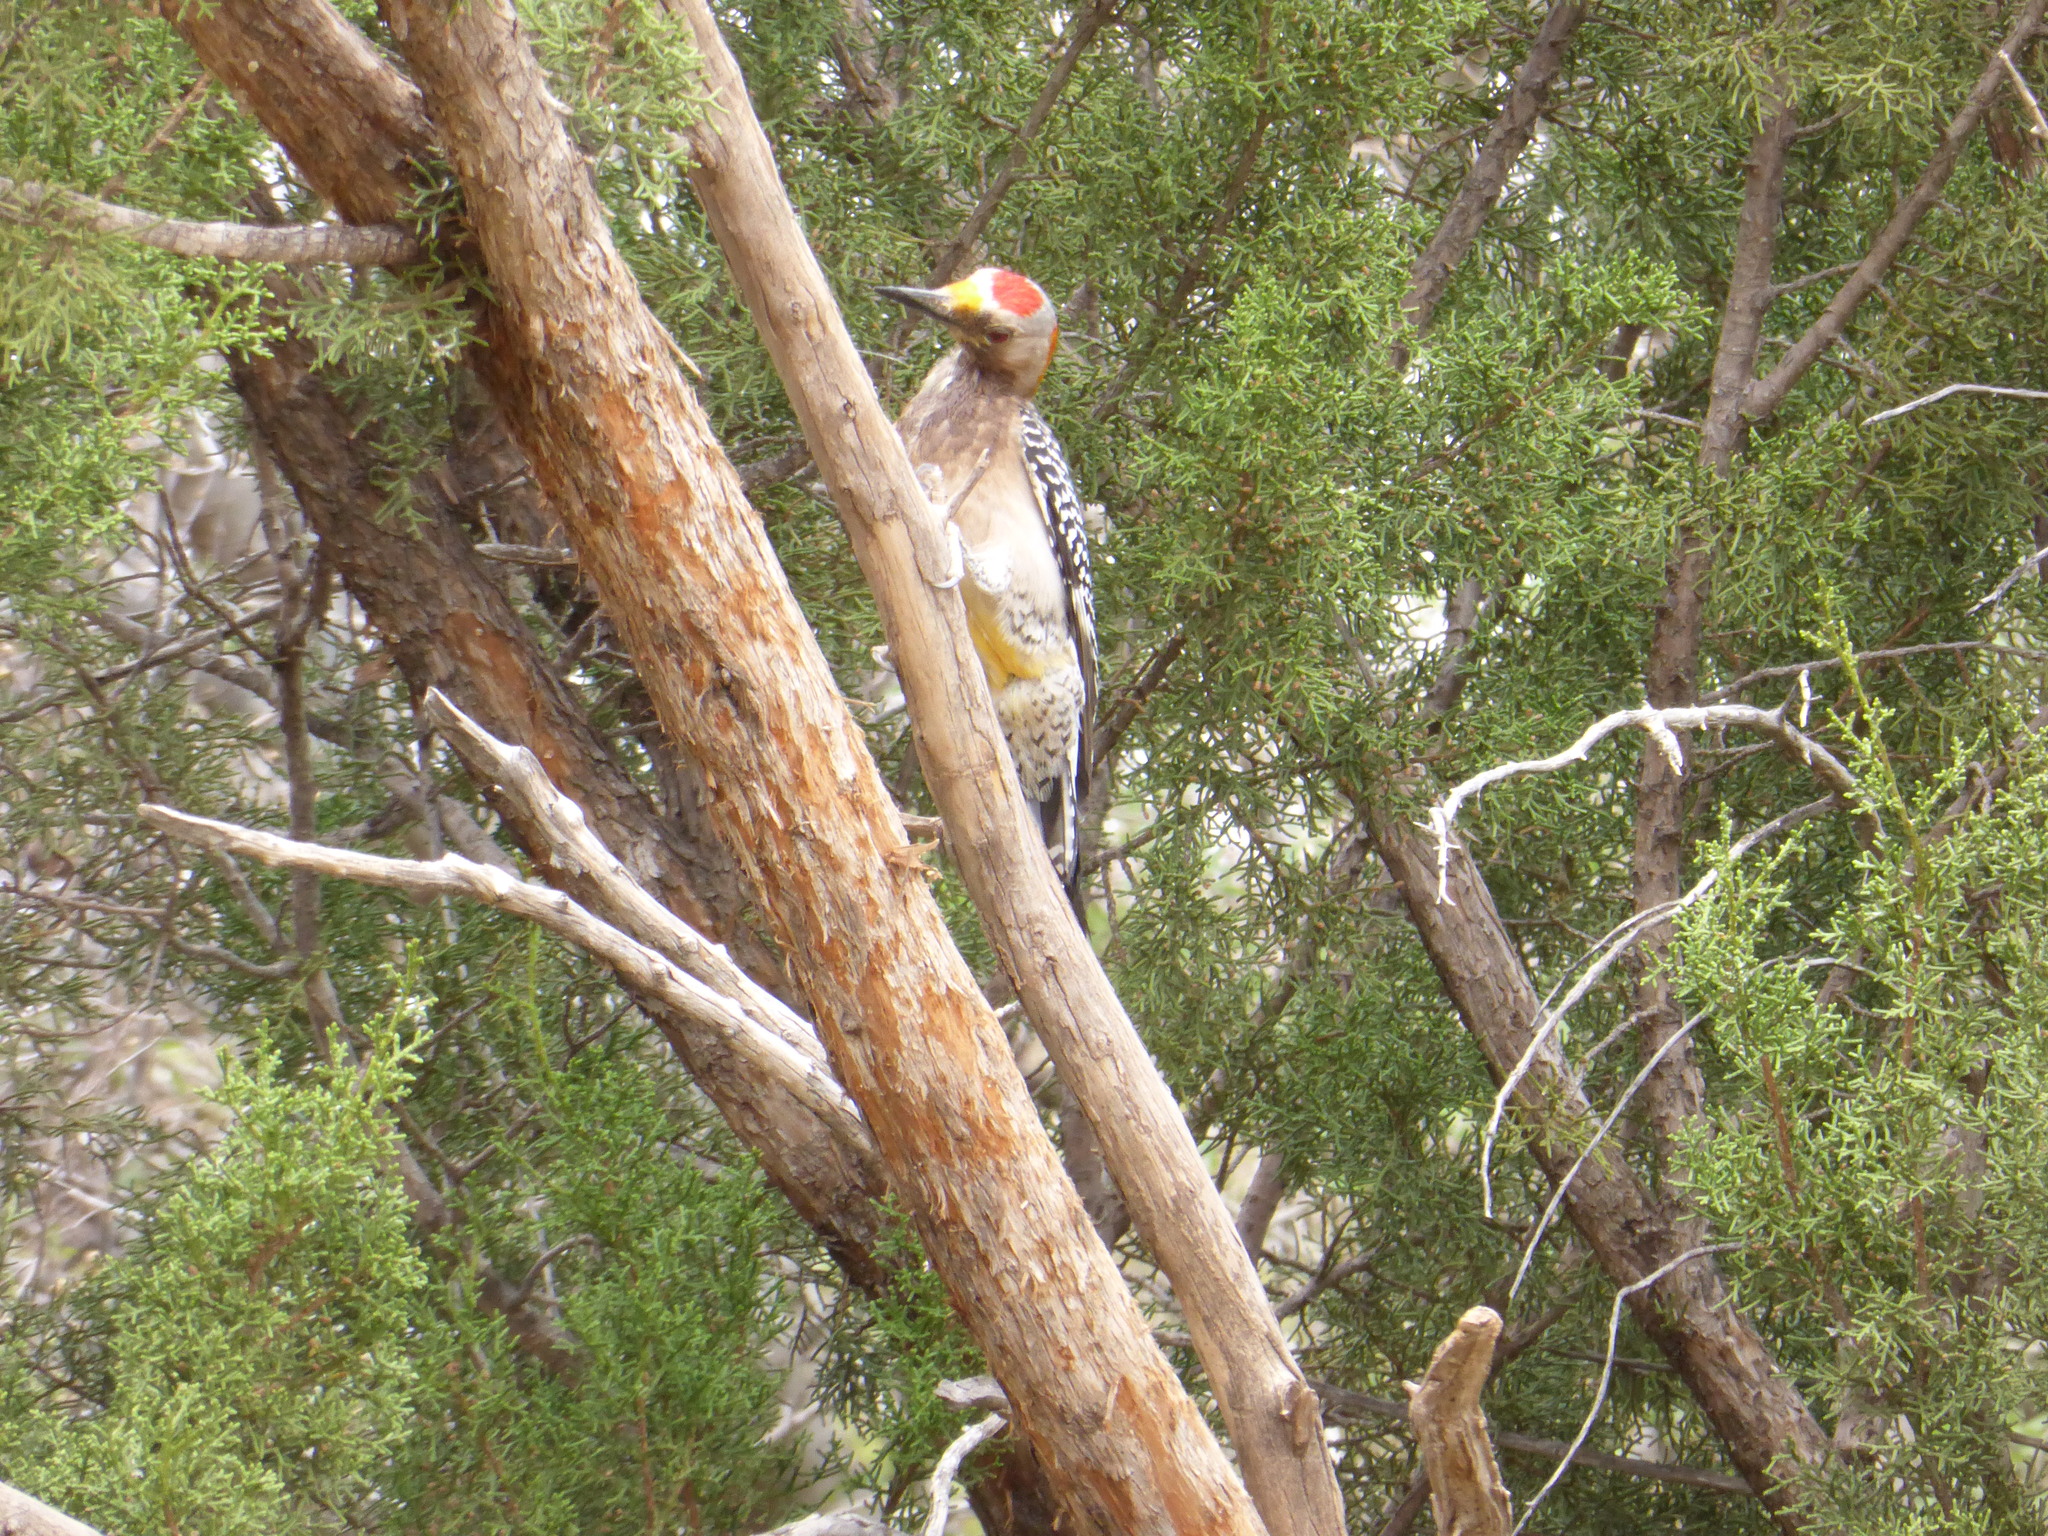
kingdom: Animalia
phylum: Chordata
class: Aves
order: Piciformes
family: Picidae
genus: Melanerpes
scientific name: Melanerpes aurifrons
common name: Golden-fronted woodpecker
